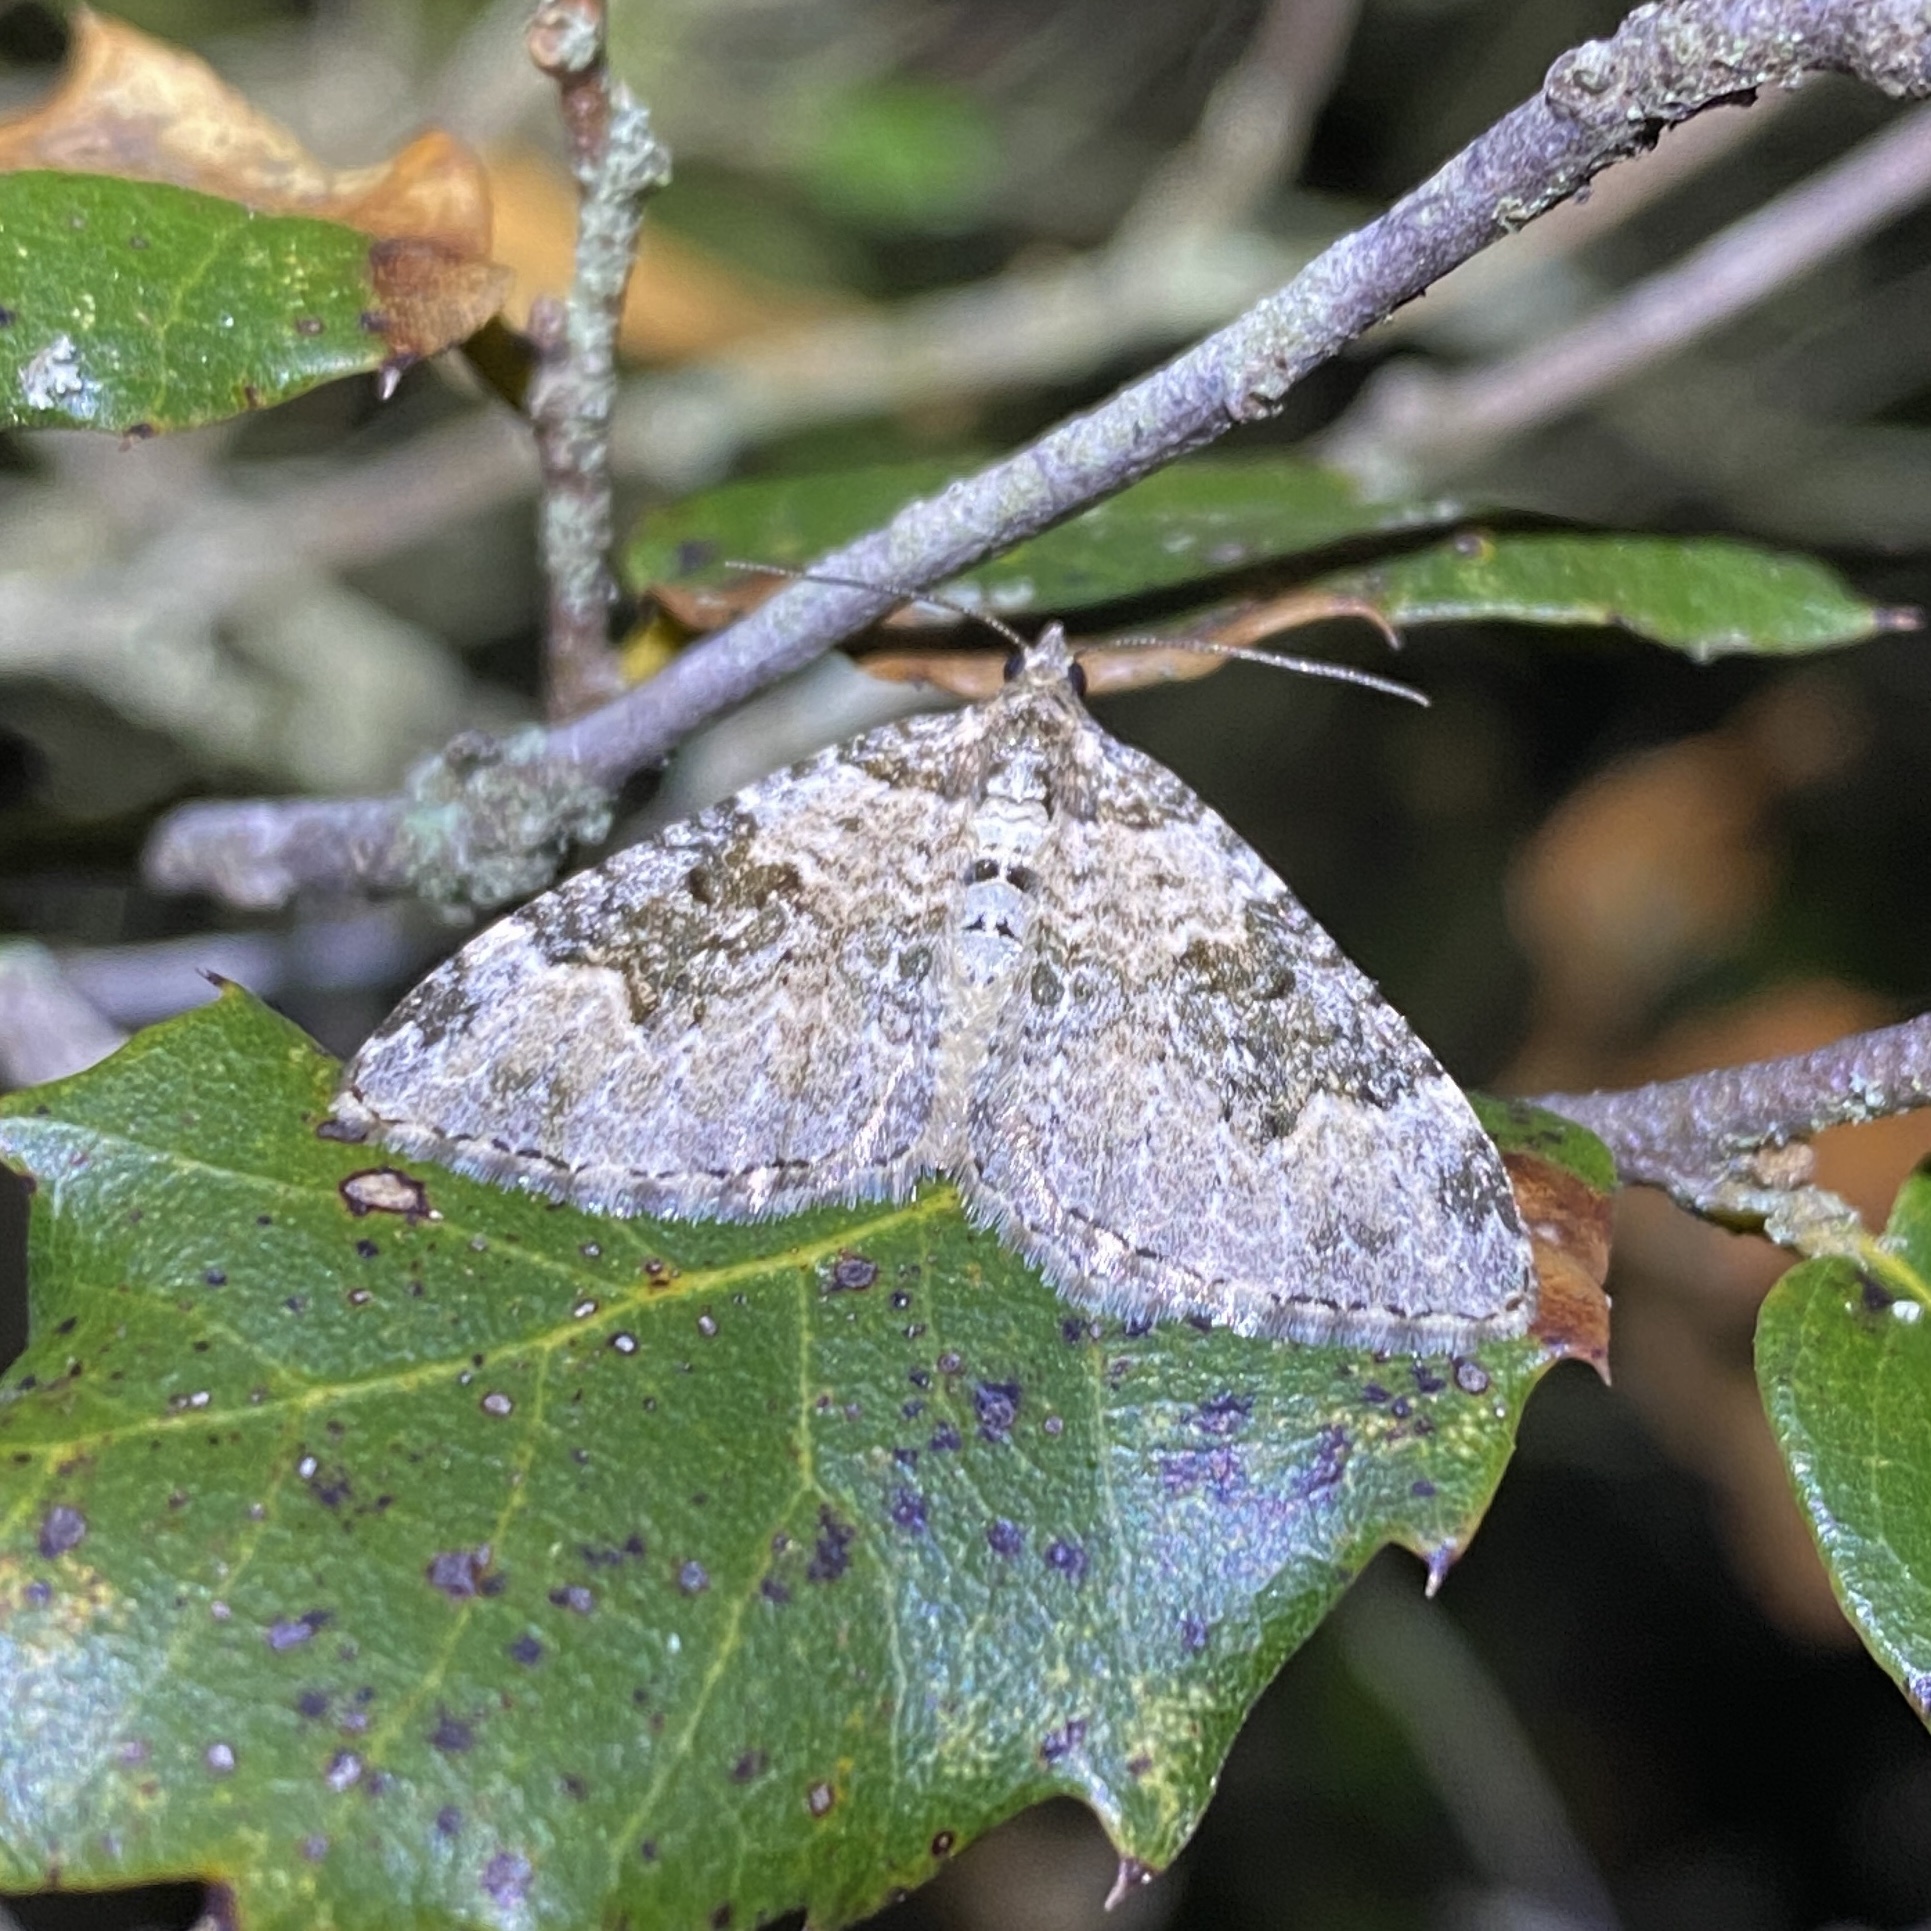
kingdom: Animalia
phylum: Arthropoda
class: Insecta
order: Lepidoptera
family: Geometridae
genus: Xanthorhoe
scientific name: Xanthorhoe fluctuata
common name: Garden carpet
